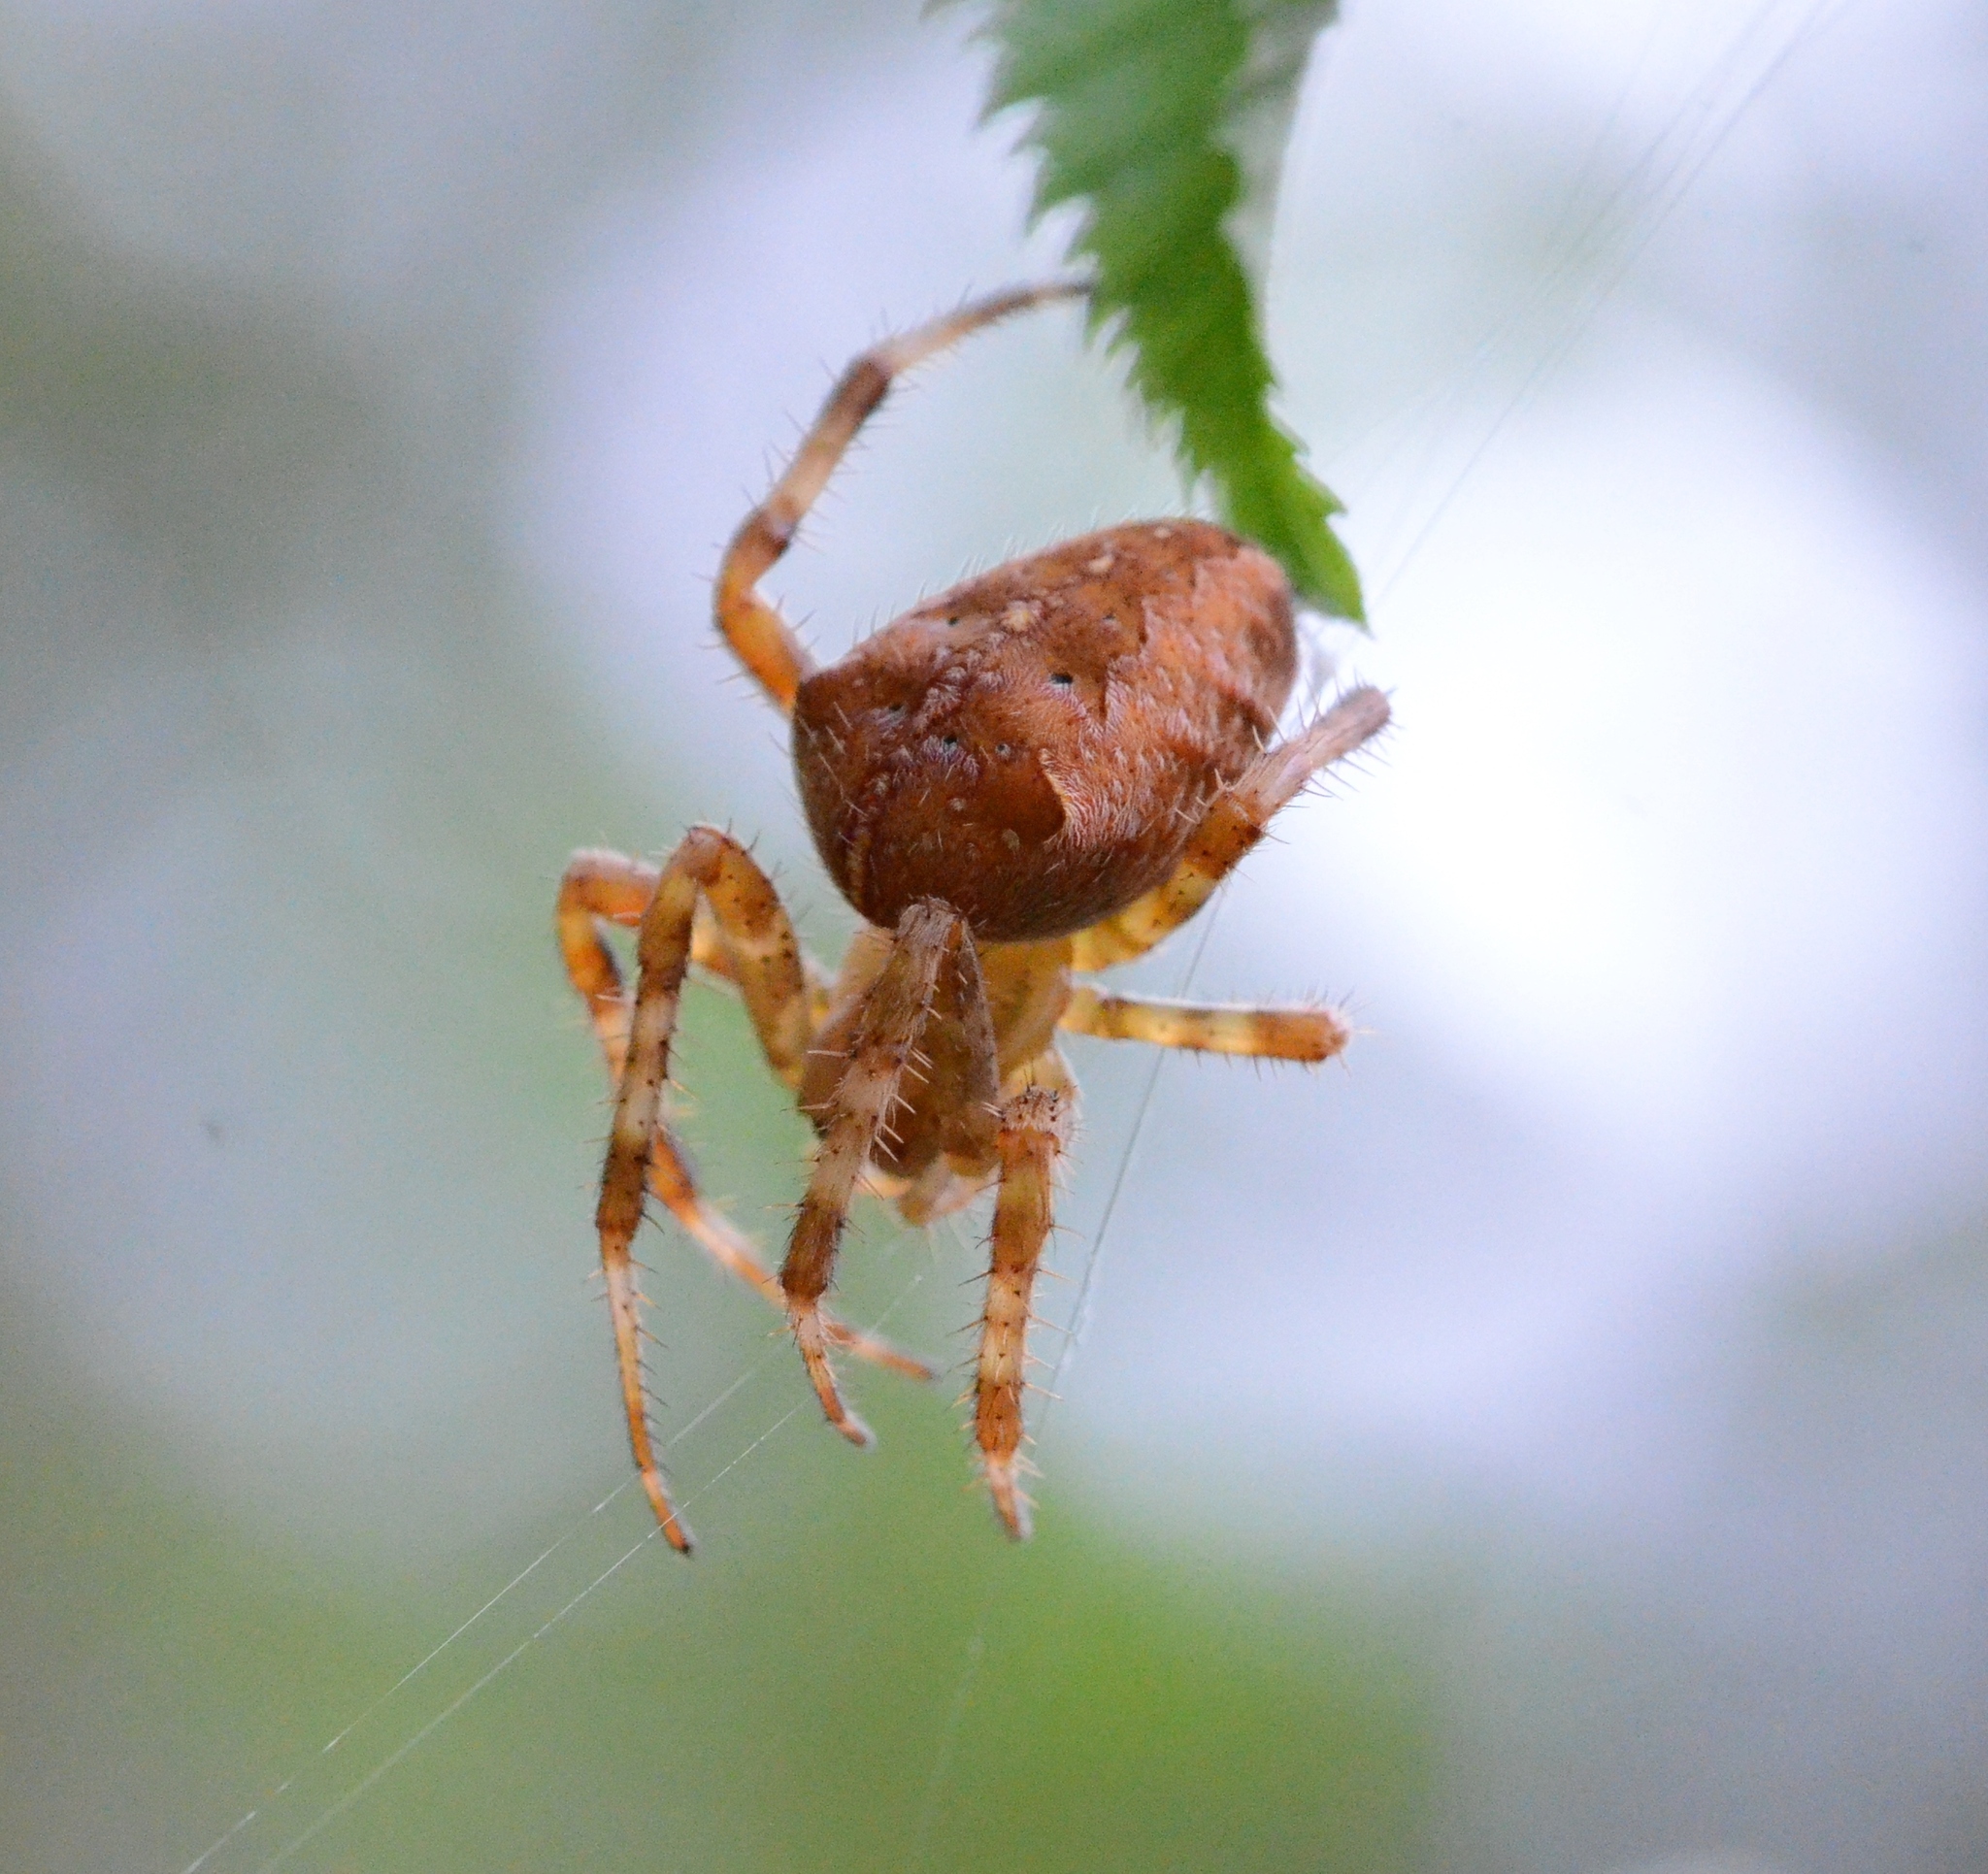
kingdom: Animalia
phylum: Arthropoda
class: Arachnida
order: Araneae
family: Araneidae
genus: Araneus
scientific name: Araneus diadematus
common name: Cross orbweaver
